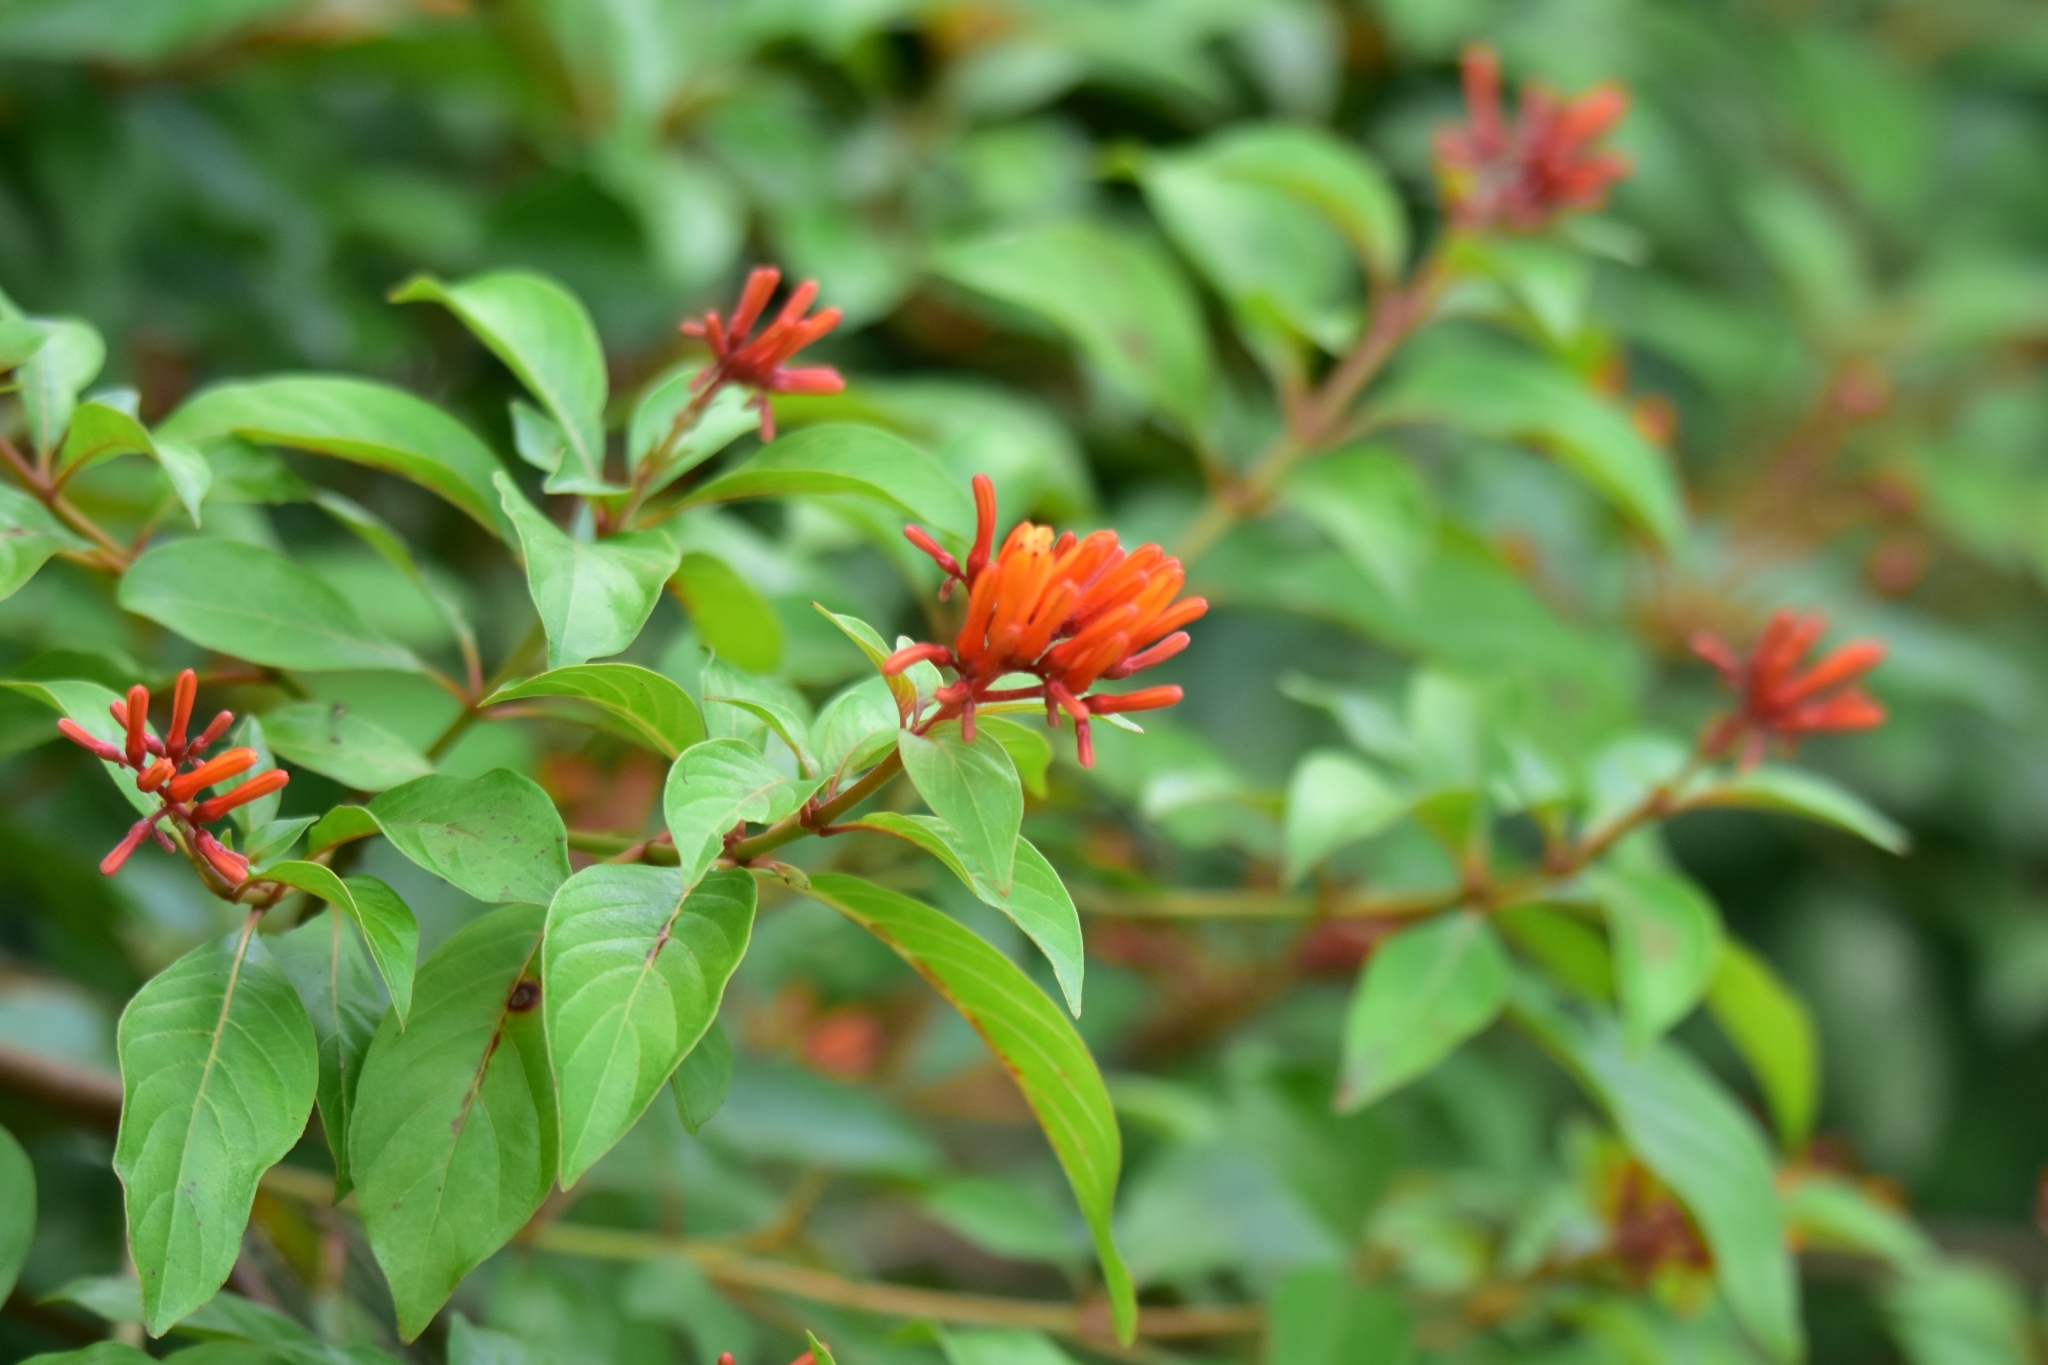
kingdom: Plantae
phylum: Tracheophyta
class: Magnoliopsida
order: Gentianales
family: Rubiaceae
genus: Hamelia
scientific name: Hamelia patens
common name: Redhead
